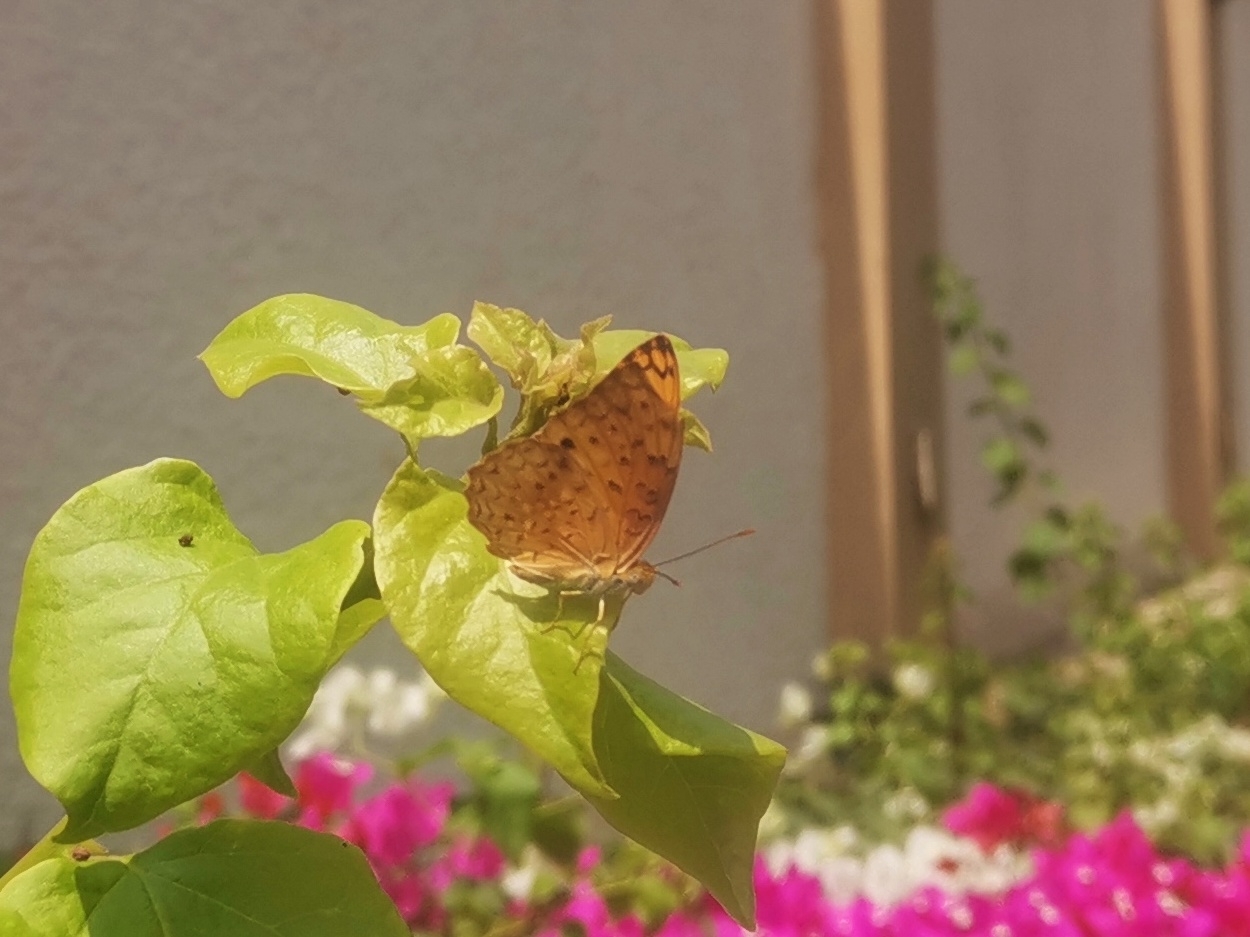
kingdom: Animalia
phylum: Arthropoda
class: Insecta
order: Lepidoptera
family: Nymphalidae
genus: Phalanta
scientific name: Phalanta phalantha
